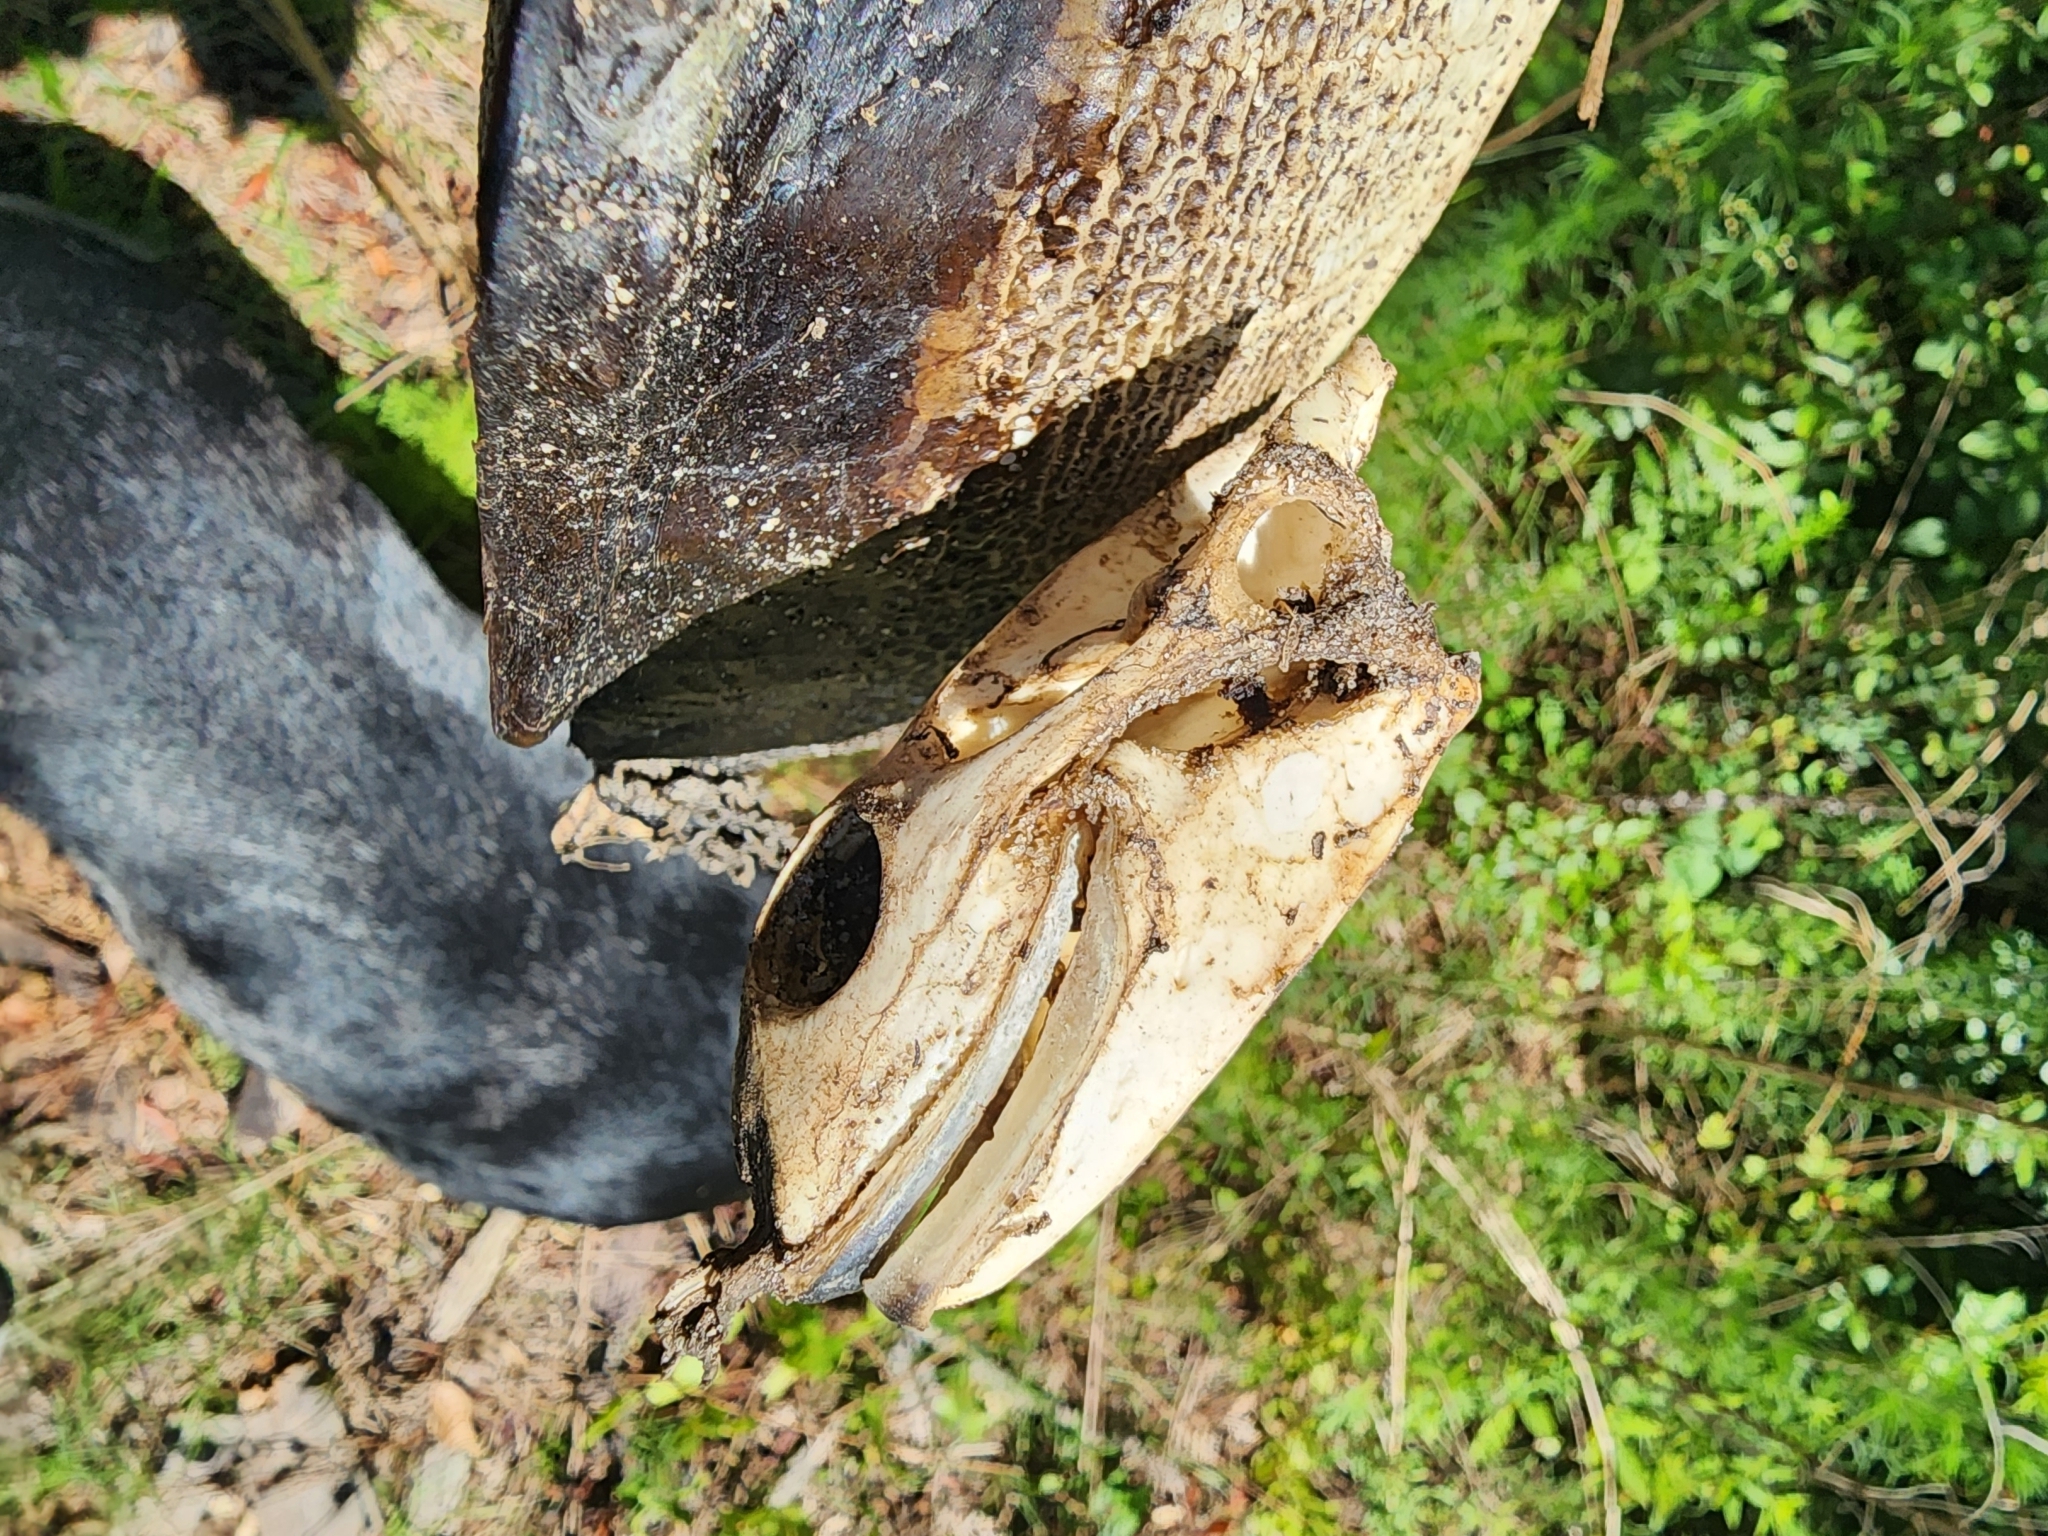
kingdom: Animalia
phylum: Chordata
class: Testudines
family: Trionychidae
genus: Apalone
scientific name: Apalone ferox
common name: Florida softshell turtle
